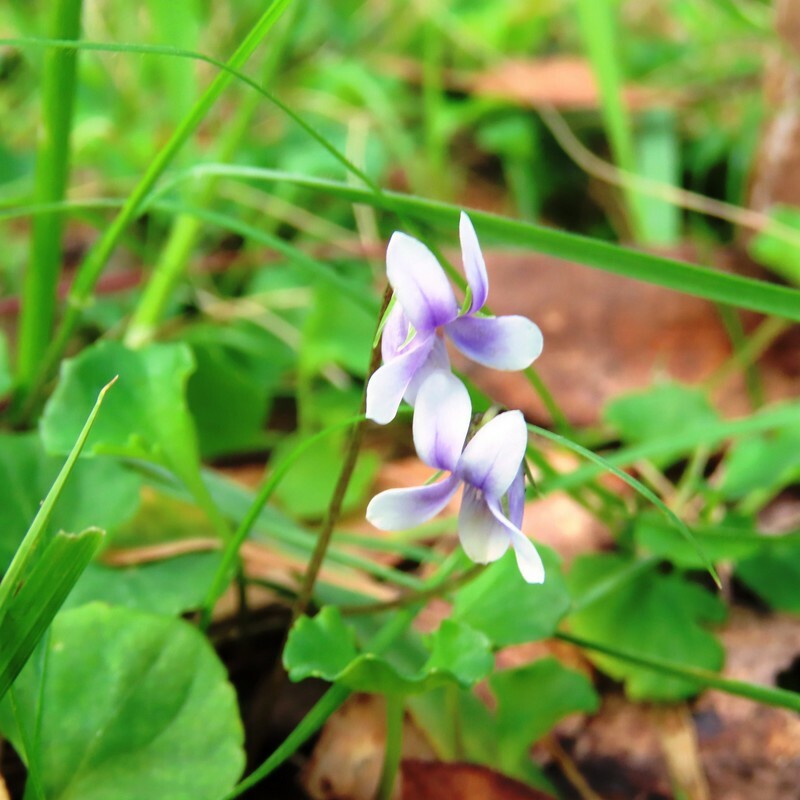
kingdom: Plantae
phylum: Tracheophyta
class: Magnoliopsida
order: Malpighiales
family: Violaceae
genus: Viola
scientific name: Viola hederacea
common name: Australian violet
